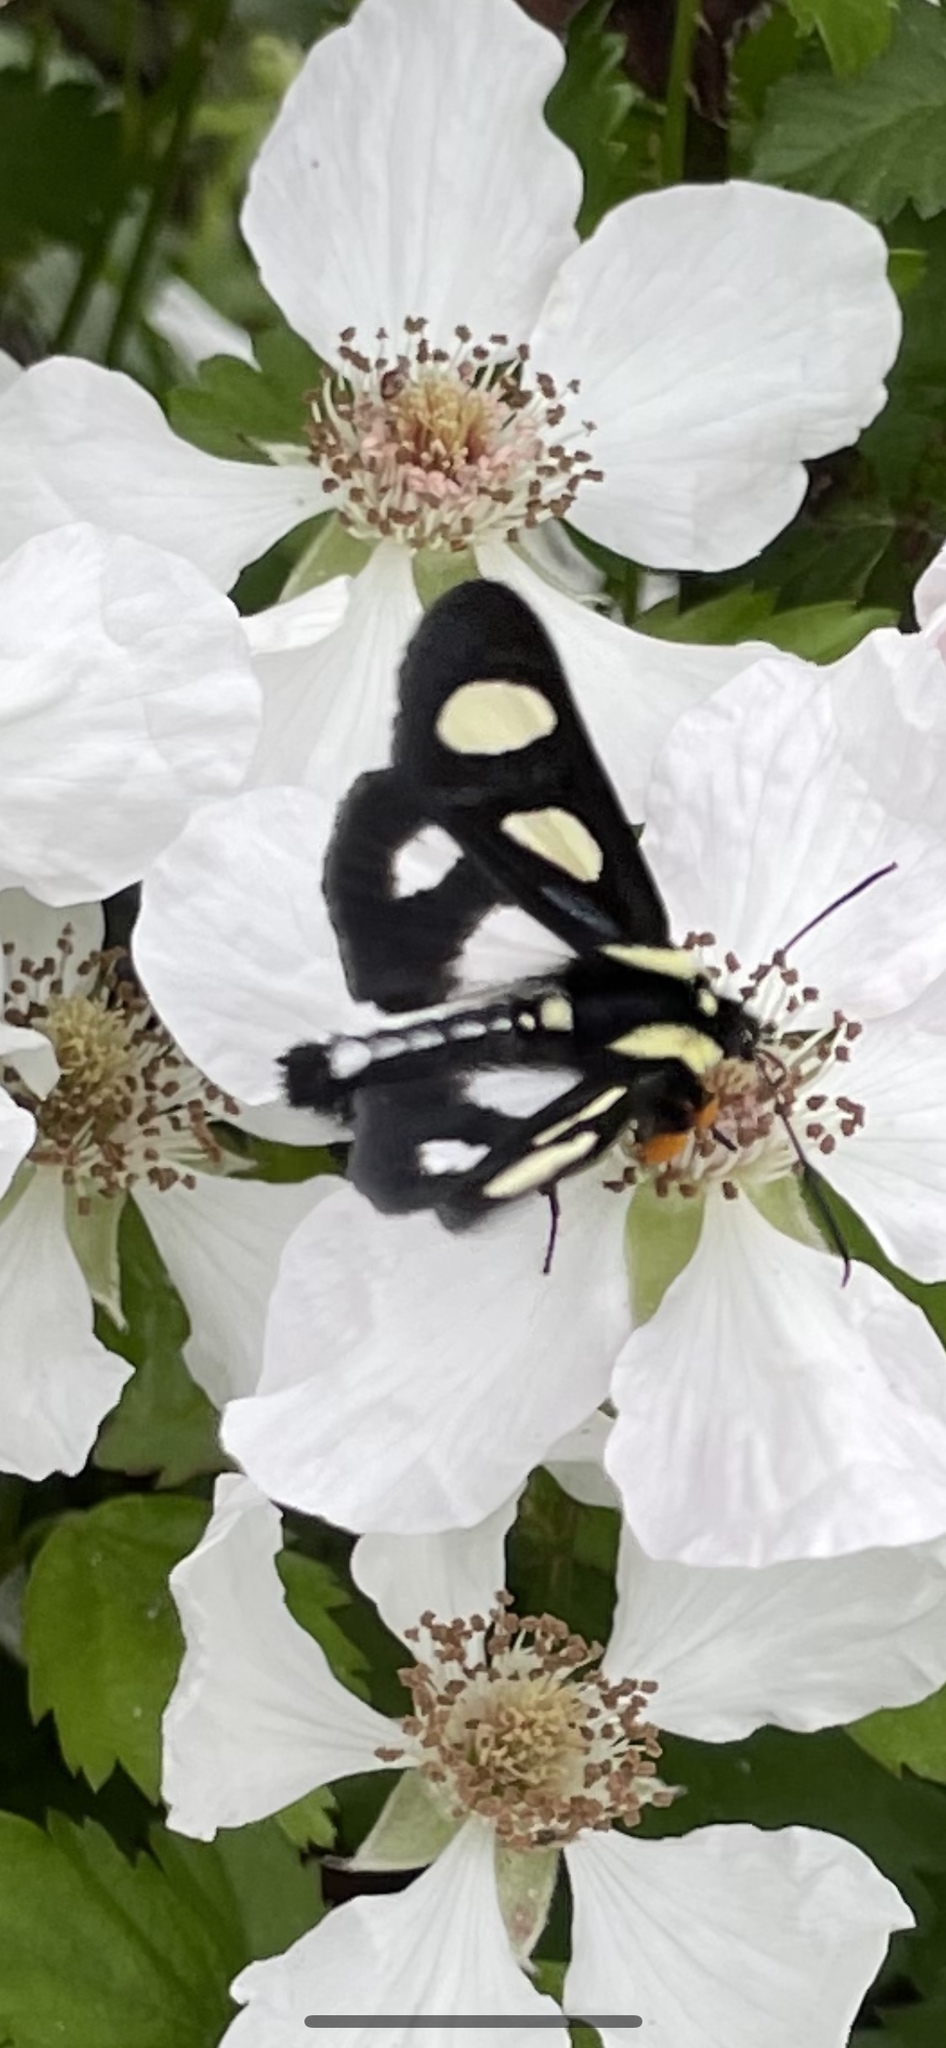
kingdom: Animalia
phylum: Arthropoda
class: Insecta
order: Lepidoptera
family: Noctuidae
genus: Alypia
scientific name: Alypia octomaculata
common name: Eight-spotted forester
